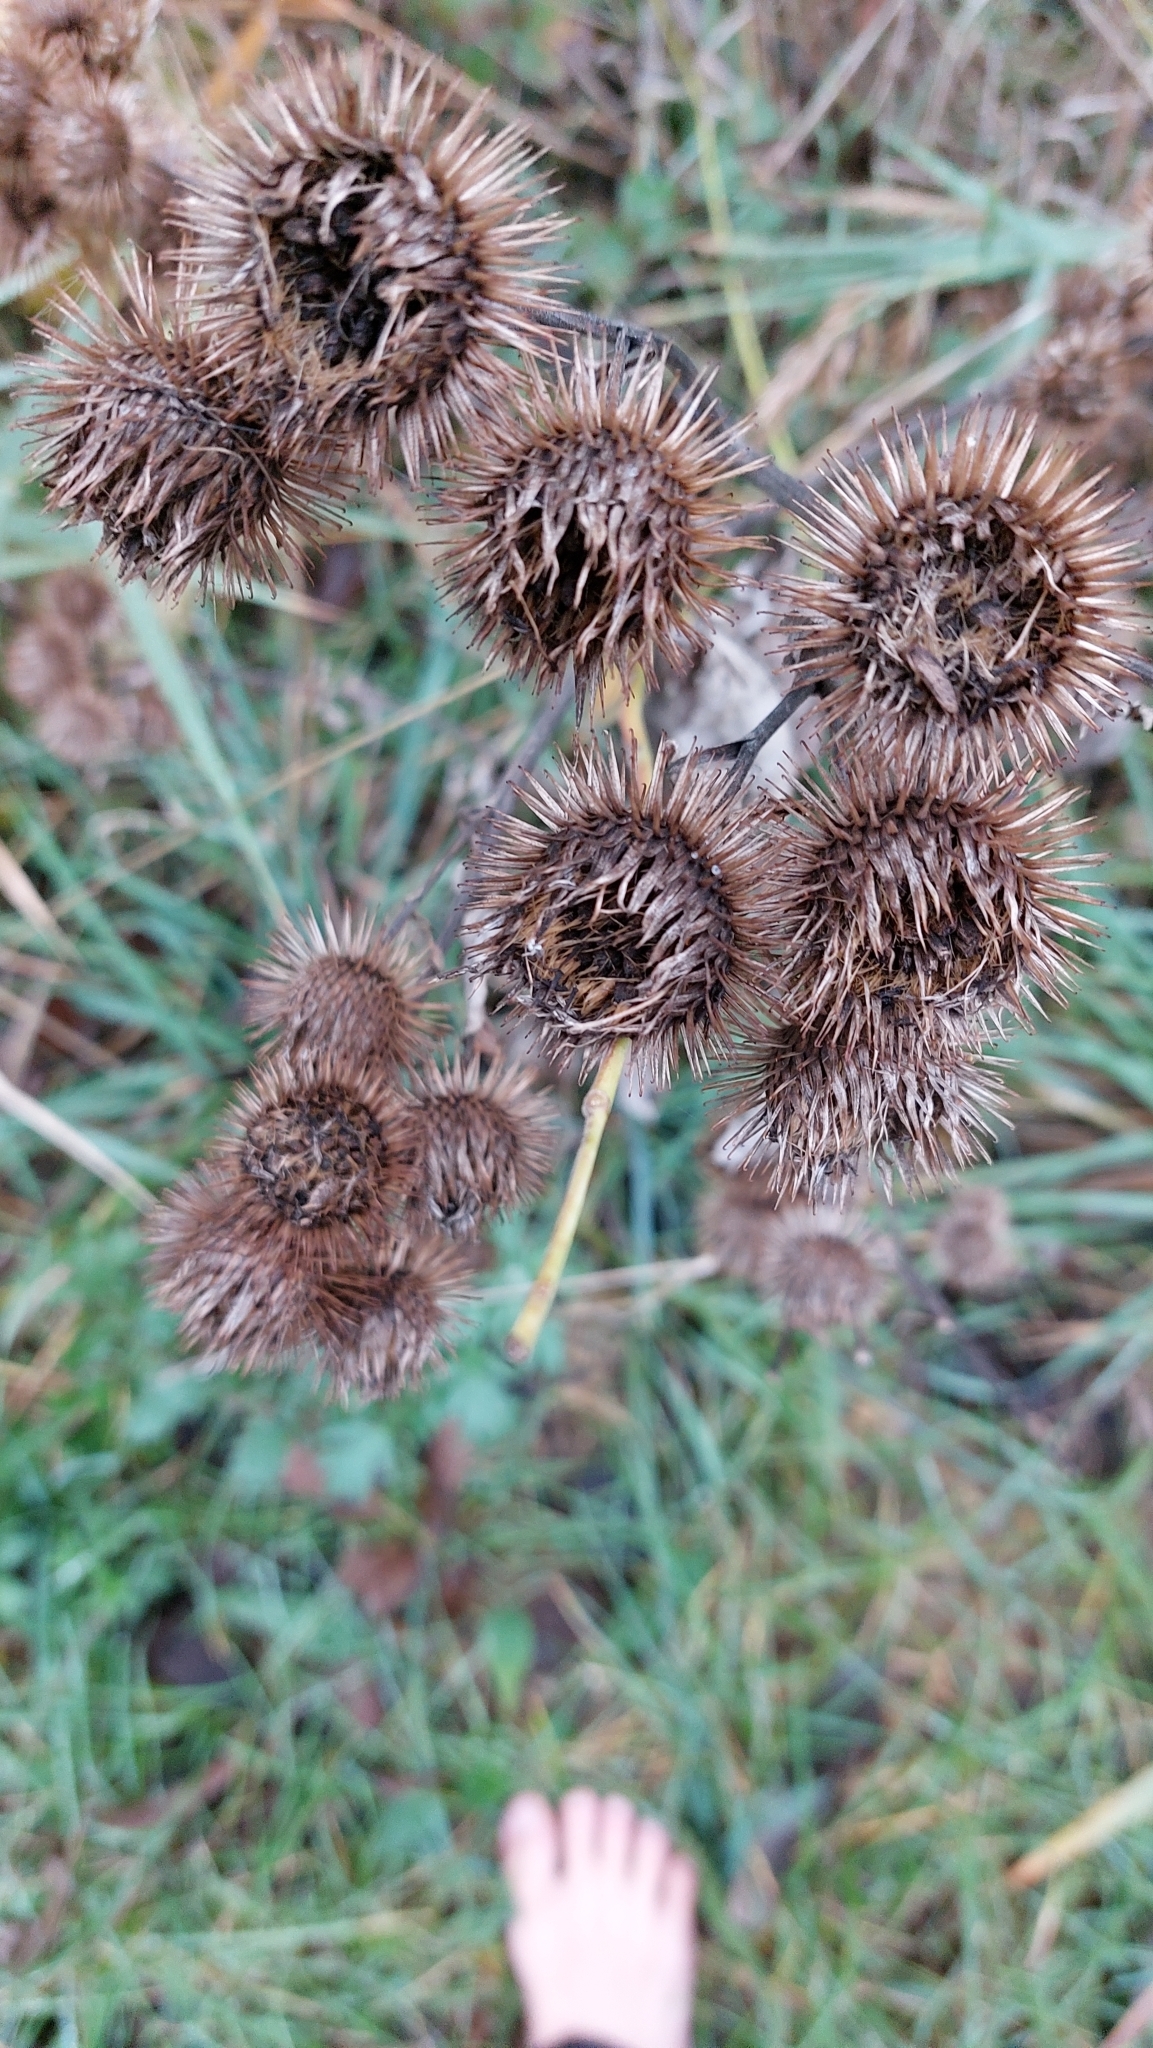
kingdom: Plantae
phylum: Tracheophyta
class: Magnoliopsida
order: Asterales
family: Asteraceae
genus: Arctium
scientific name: Arctium lappa
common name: Greater burdock
